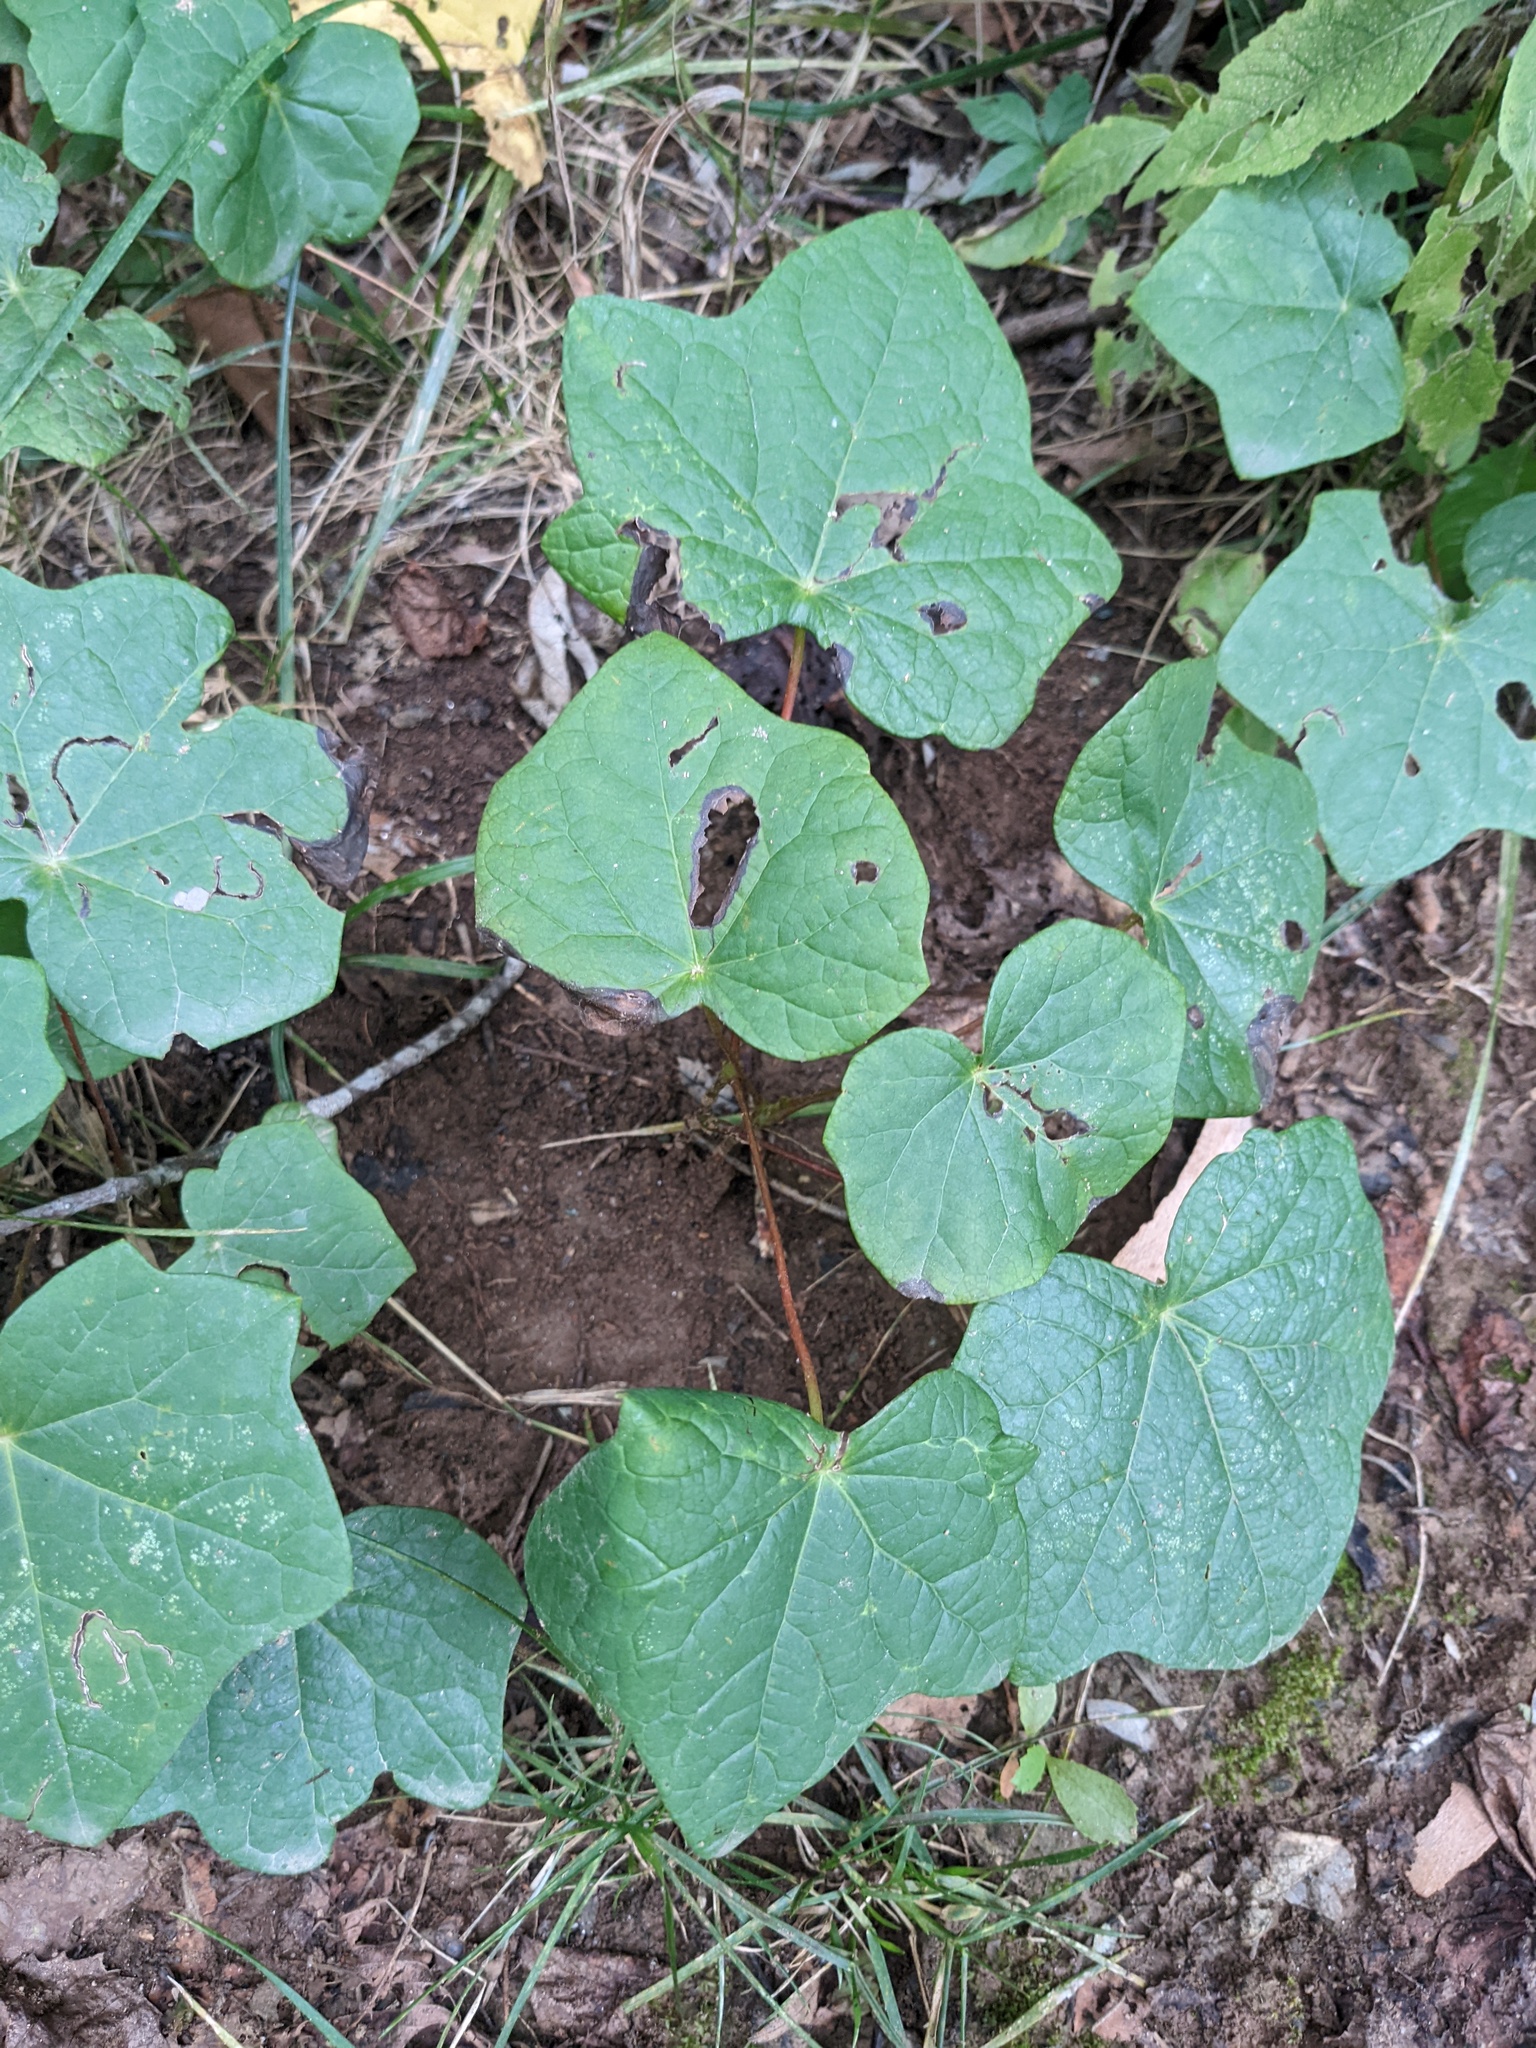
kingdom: Plantae
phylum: Tracheophyta
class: Magnoliopsida
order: Ranunculales
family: Menispermaceae
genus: Menispermum
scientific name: Menispermum canadense
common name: Moonseed
